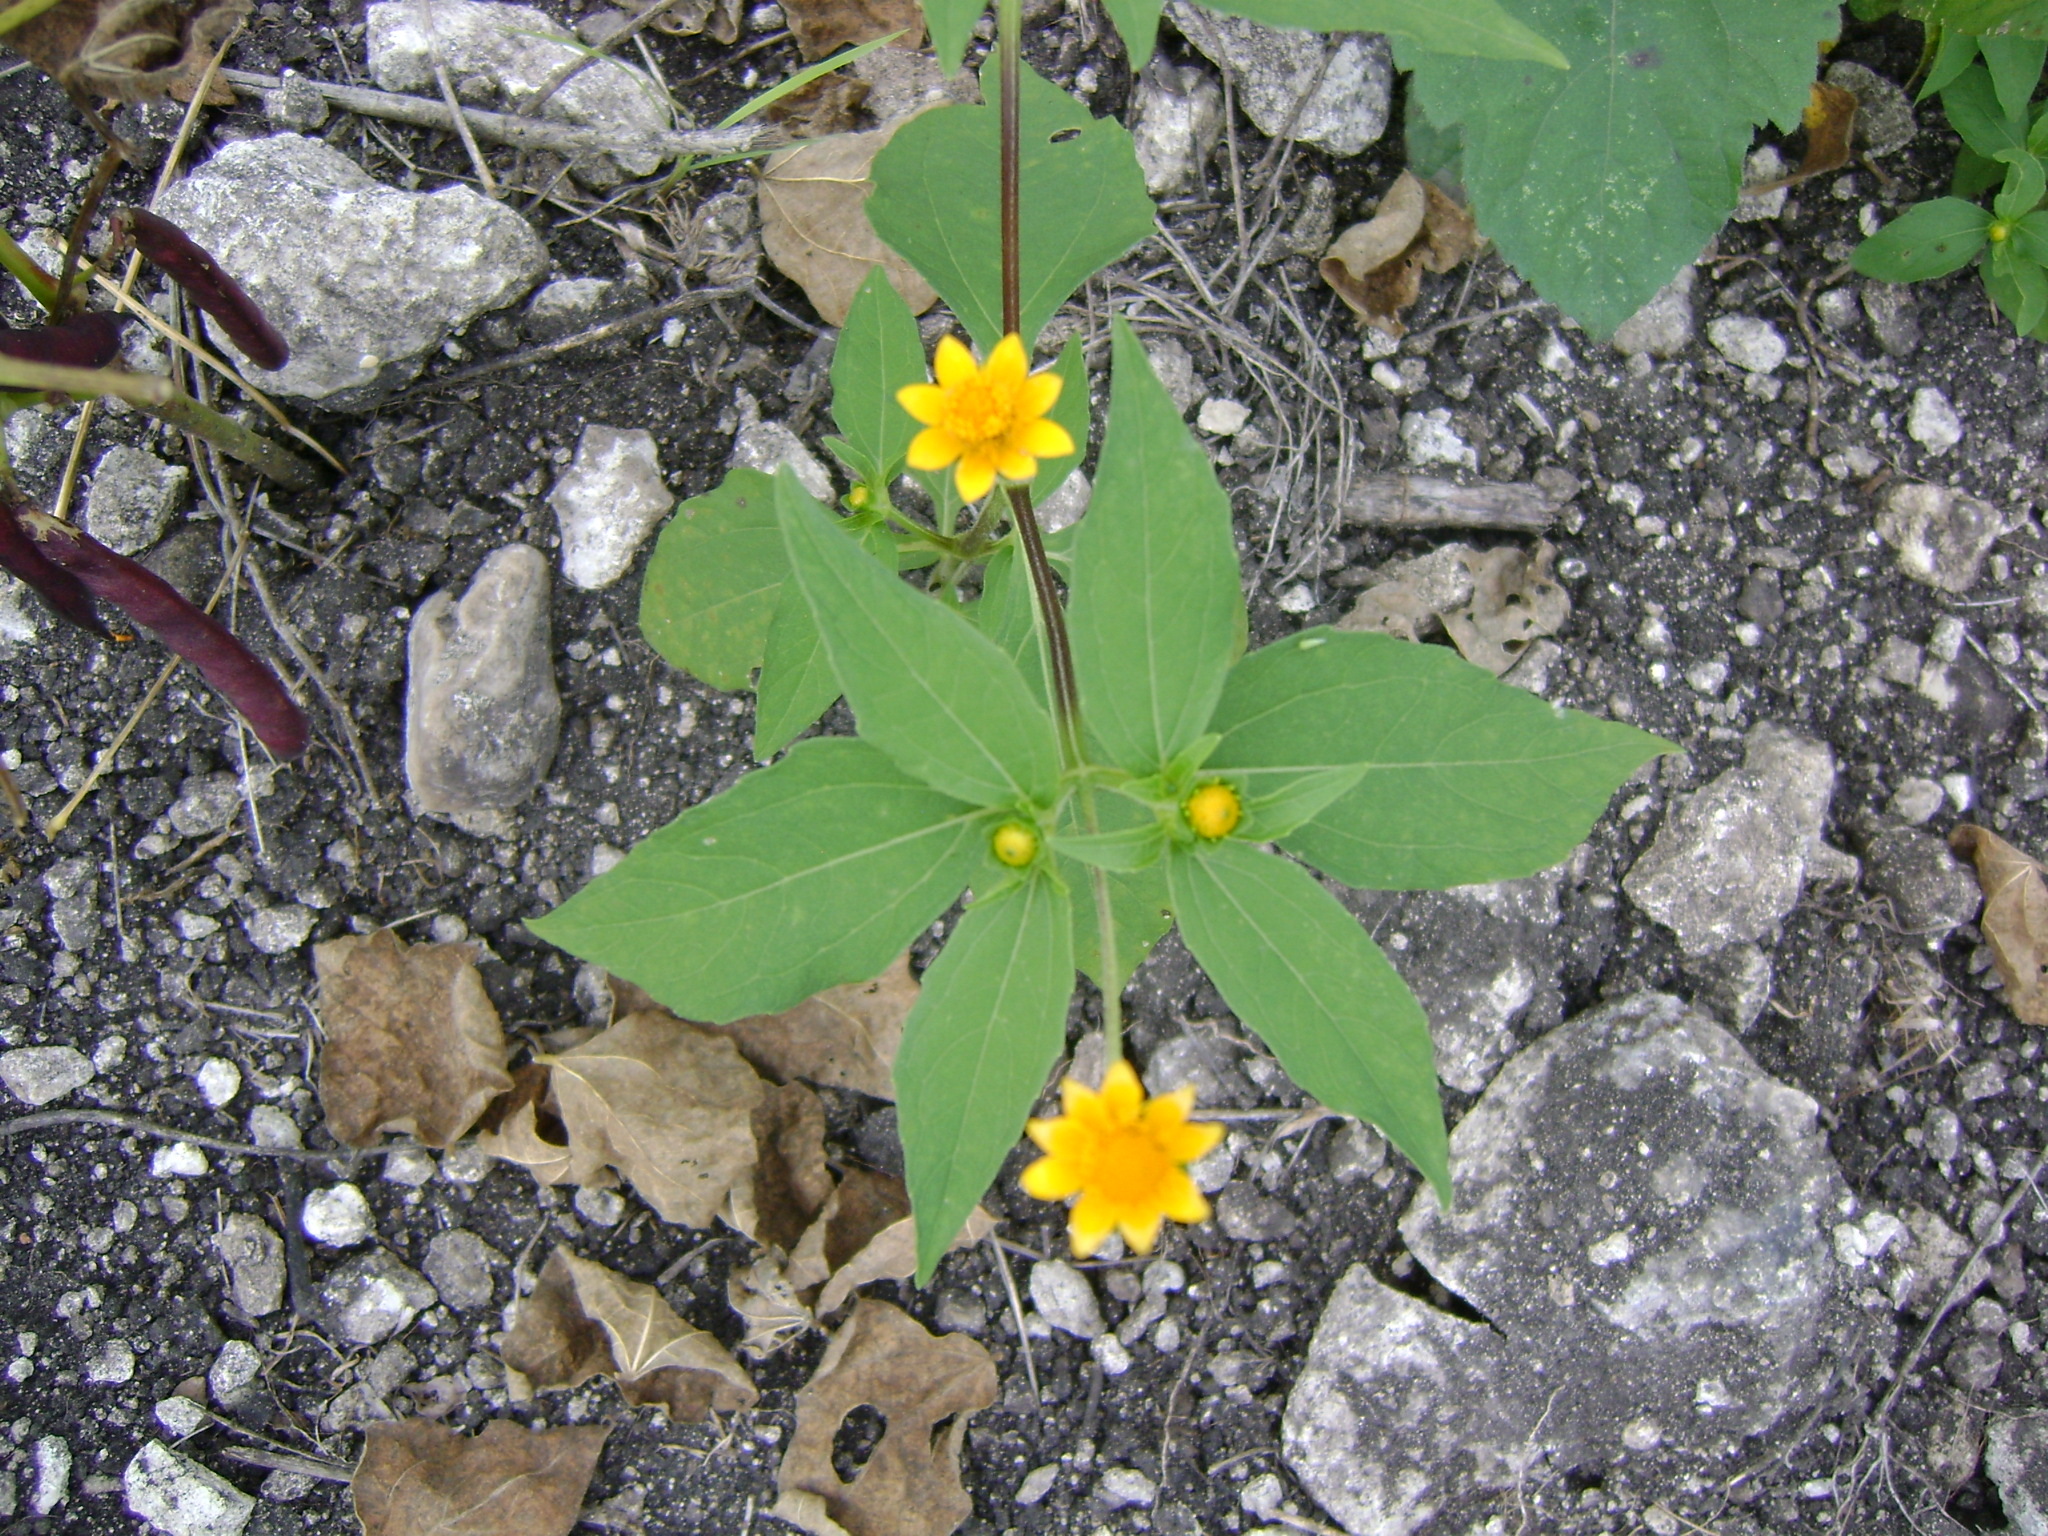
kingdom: Plantae
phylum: Tracheophyta
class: Magnoliopsida
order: Asterales
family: Asteraceae
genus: Melampodium
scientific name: Melampodium divaricatum
